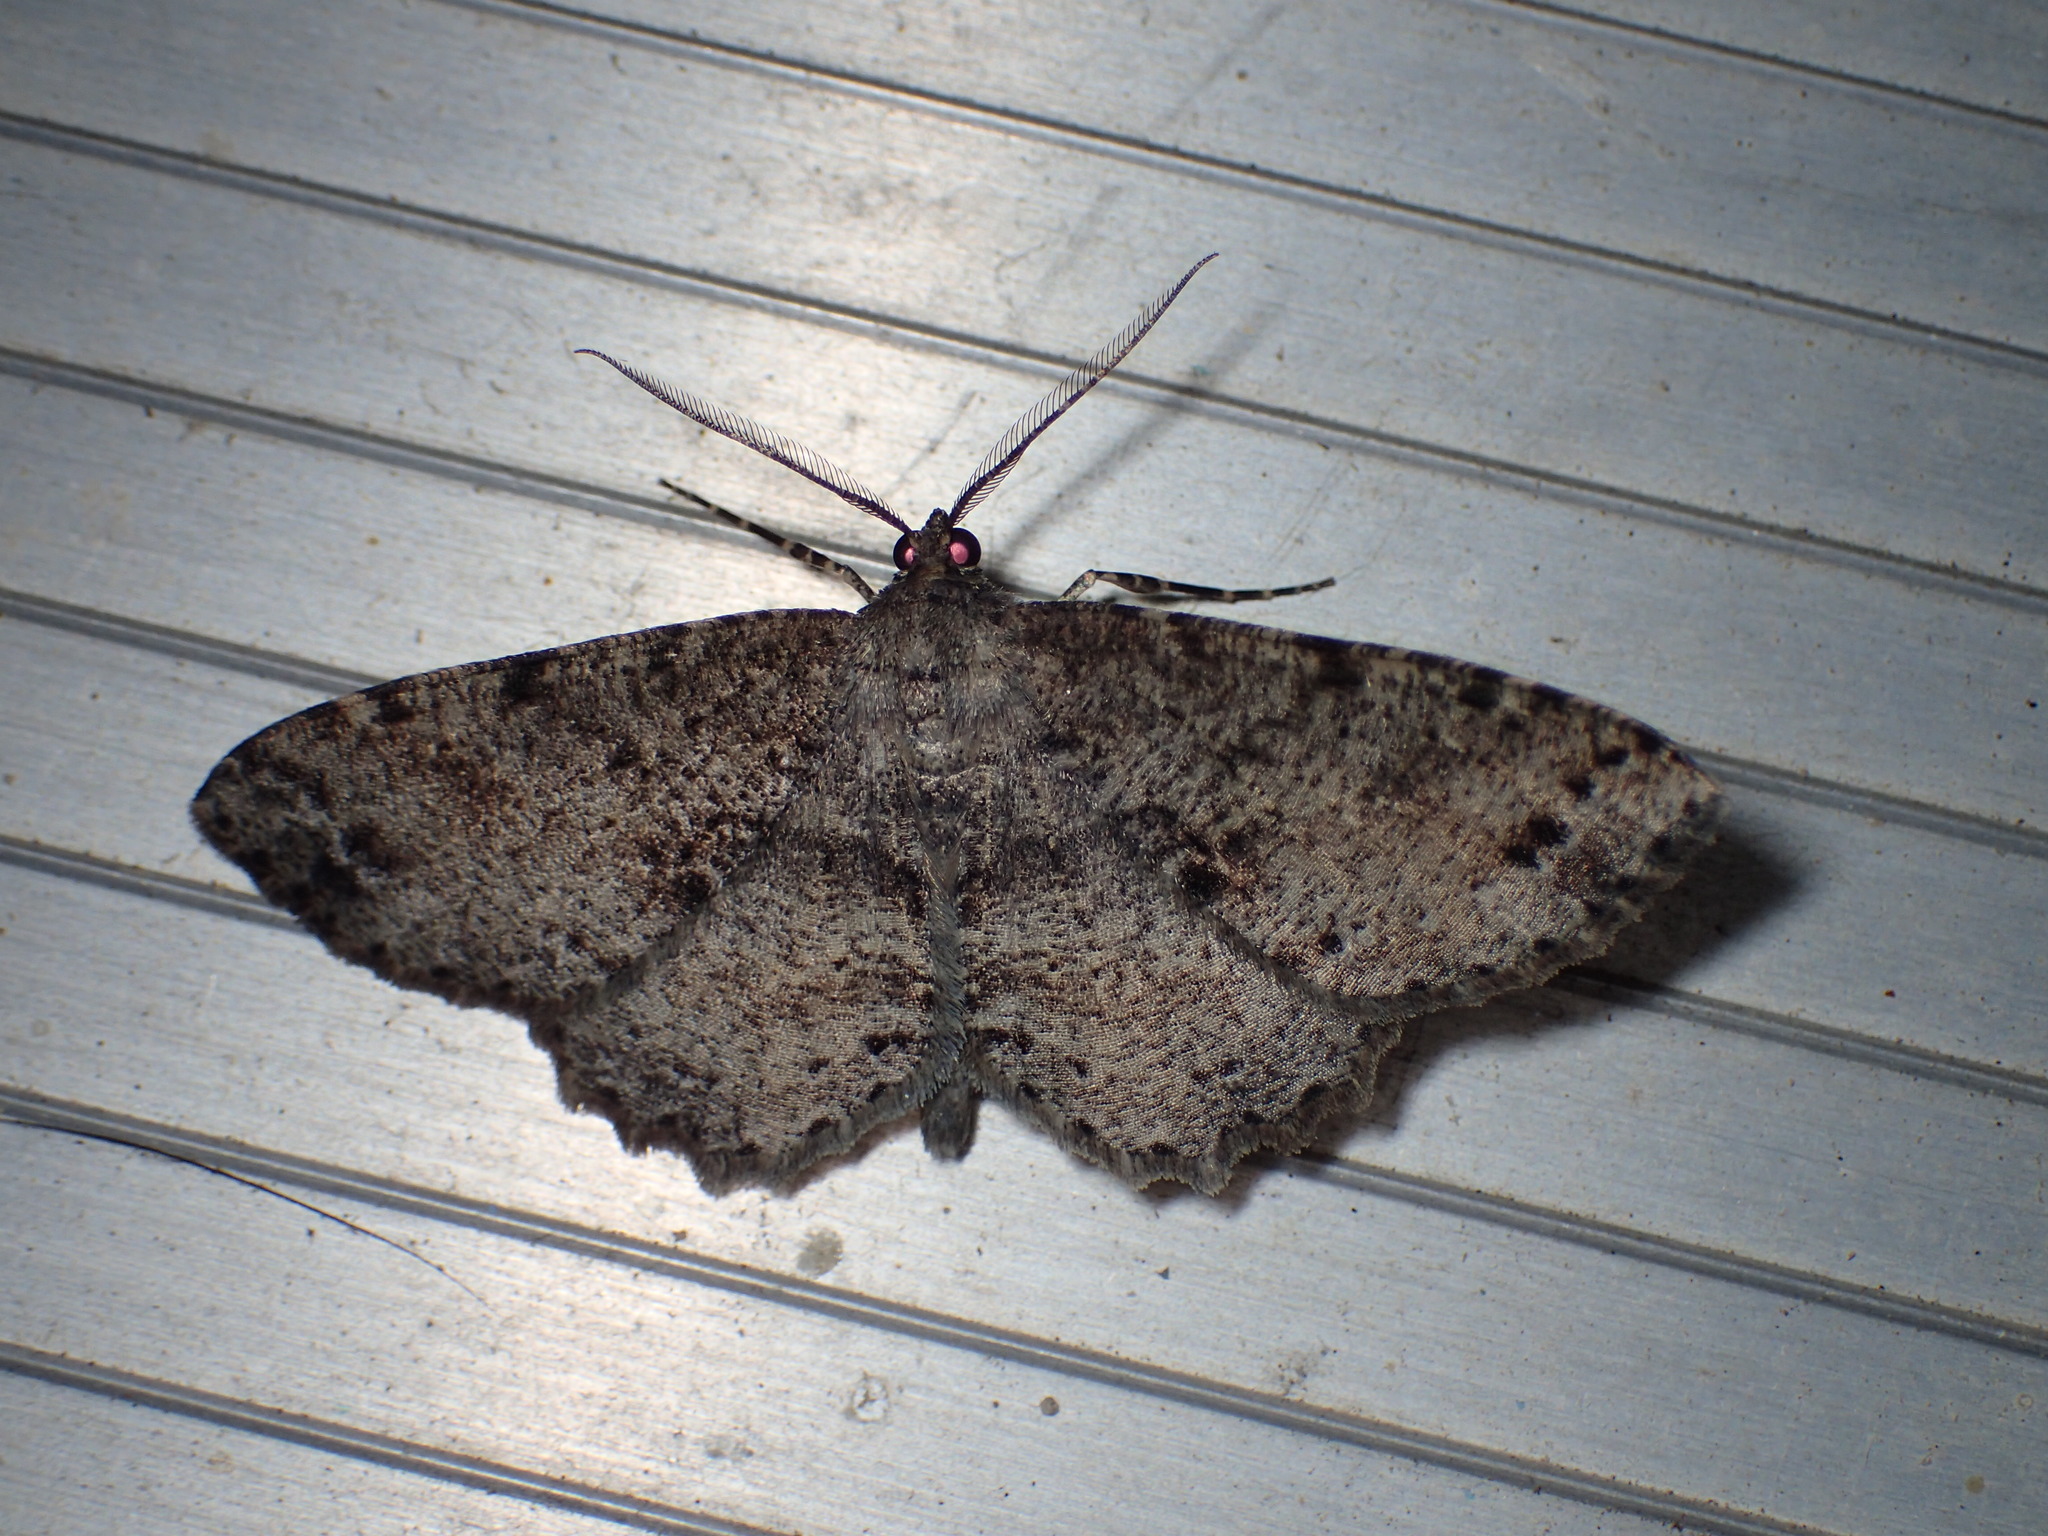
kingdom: Animalia
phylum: Arthropoda
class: Insecta
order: Lepidoptera
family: Geometridae
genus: Melanolophia
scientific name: Melanolophia canadaria
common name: Canadian melanolophia
